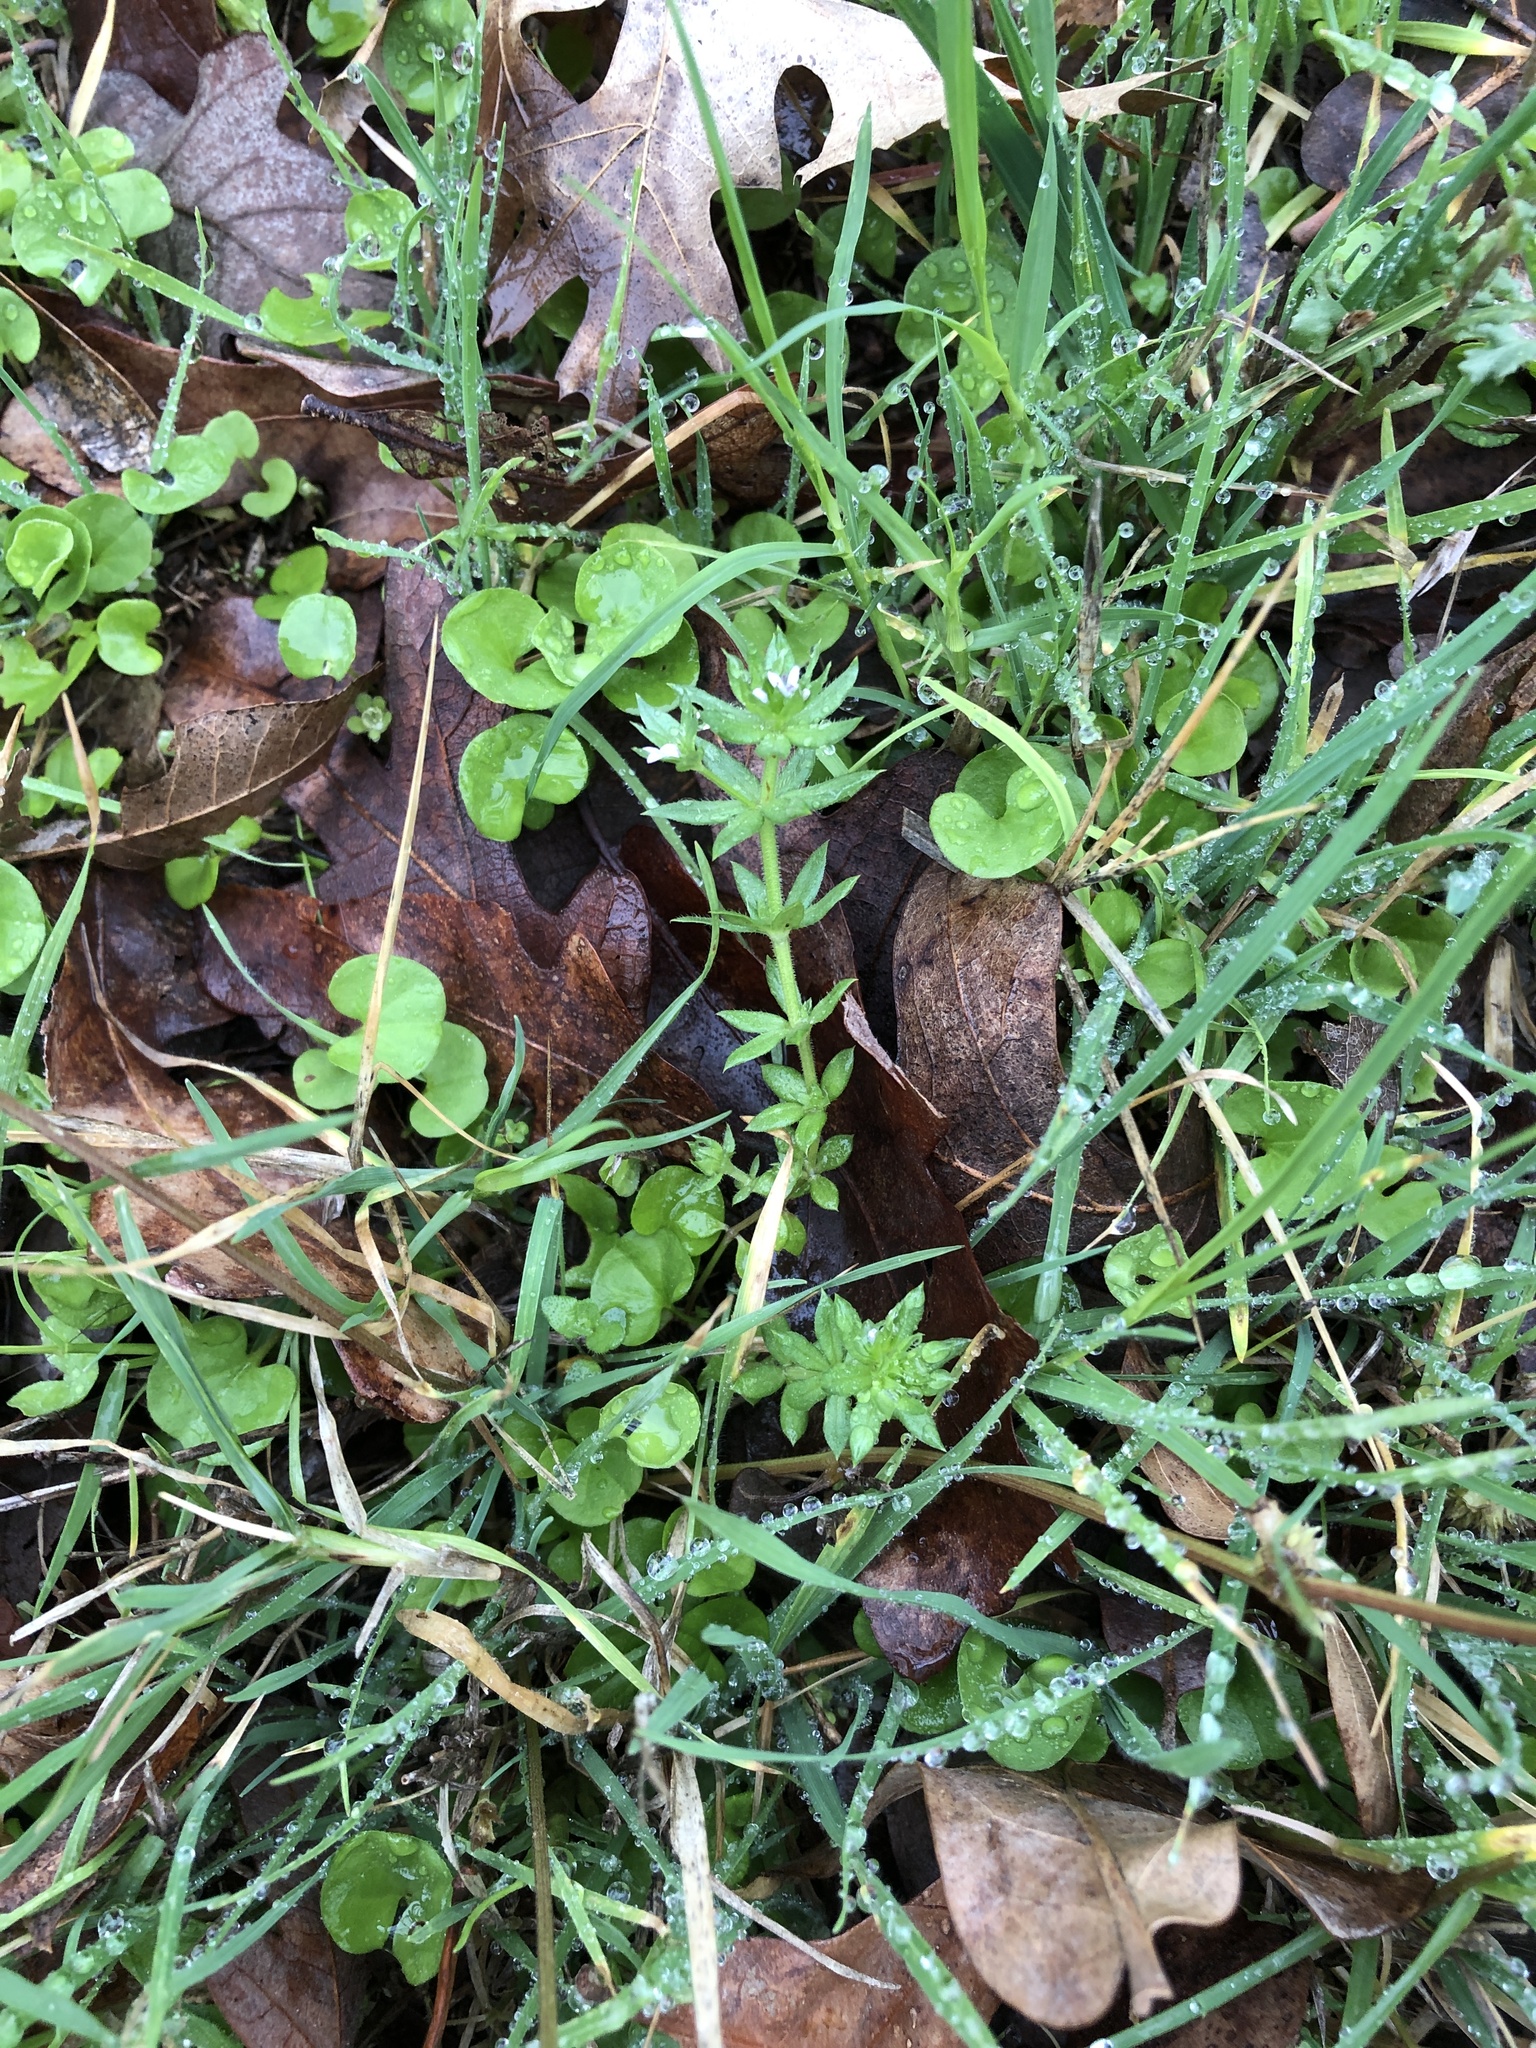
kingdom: Plantae
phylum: Tracheophyta
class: Magnoliopsida
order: Gentianales
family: Rubiaceae
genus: Sherardia
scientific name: Sherardia arvensis
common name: Field madder
